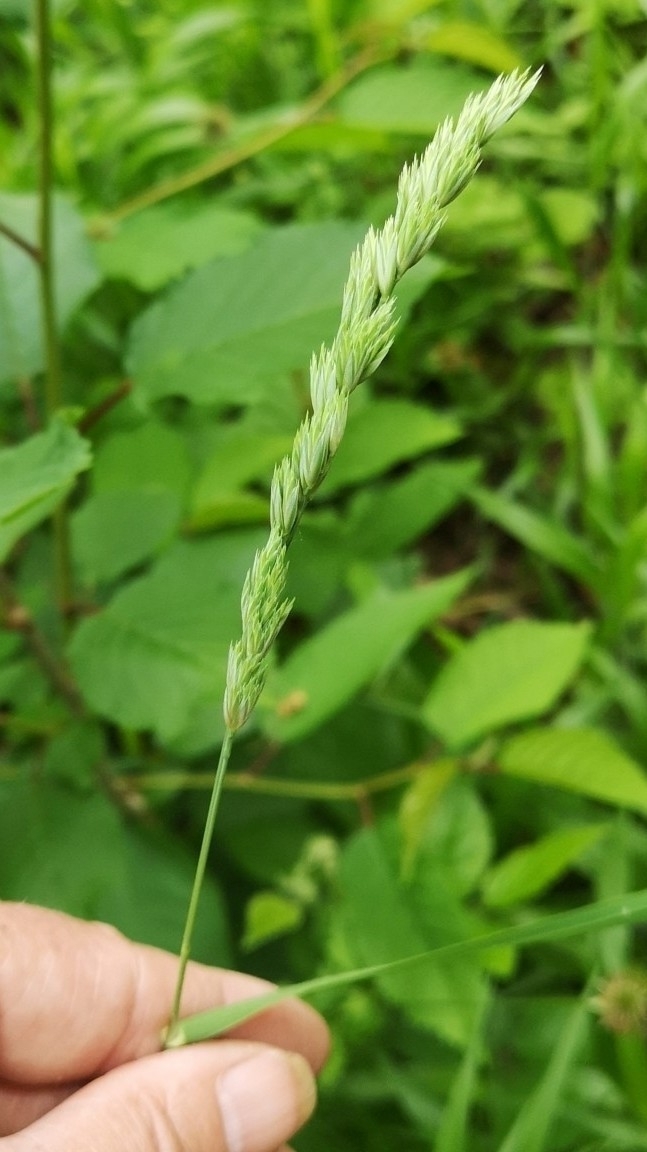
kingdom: Plantae
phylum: Tracheophyta
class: Liliopsida
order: Poales
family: Poaceae
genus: Dactylis
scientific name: Dactylis glomerata
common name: Orchardgrass
